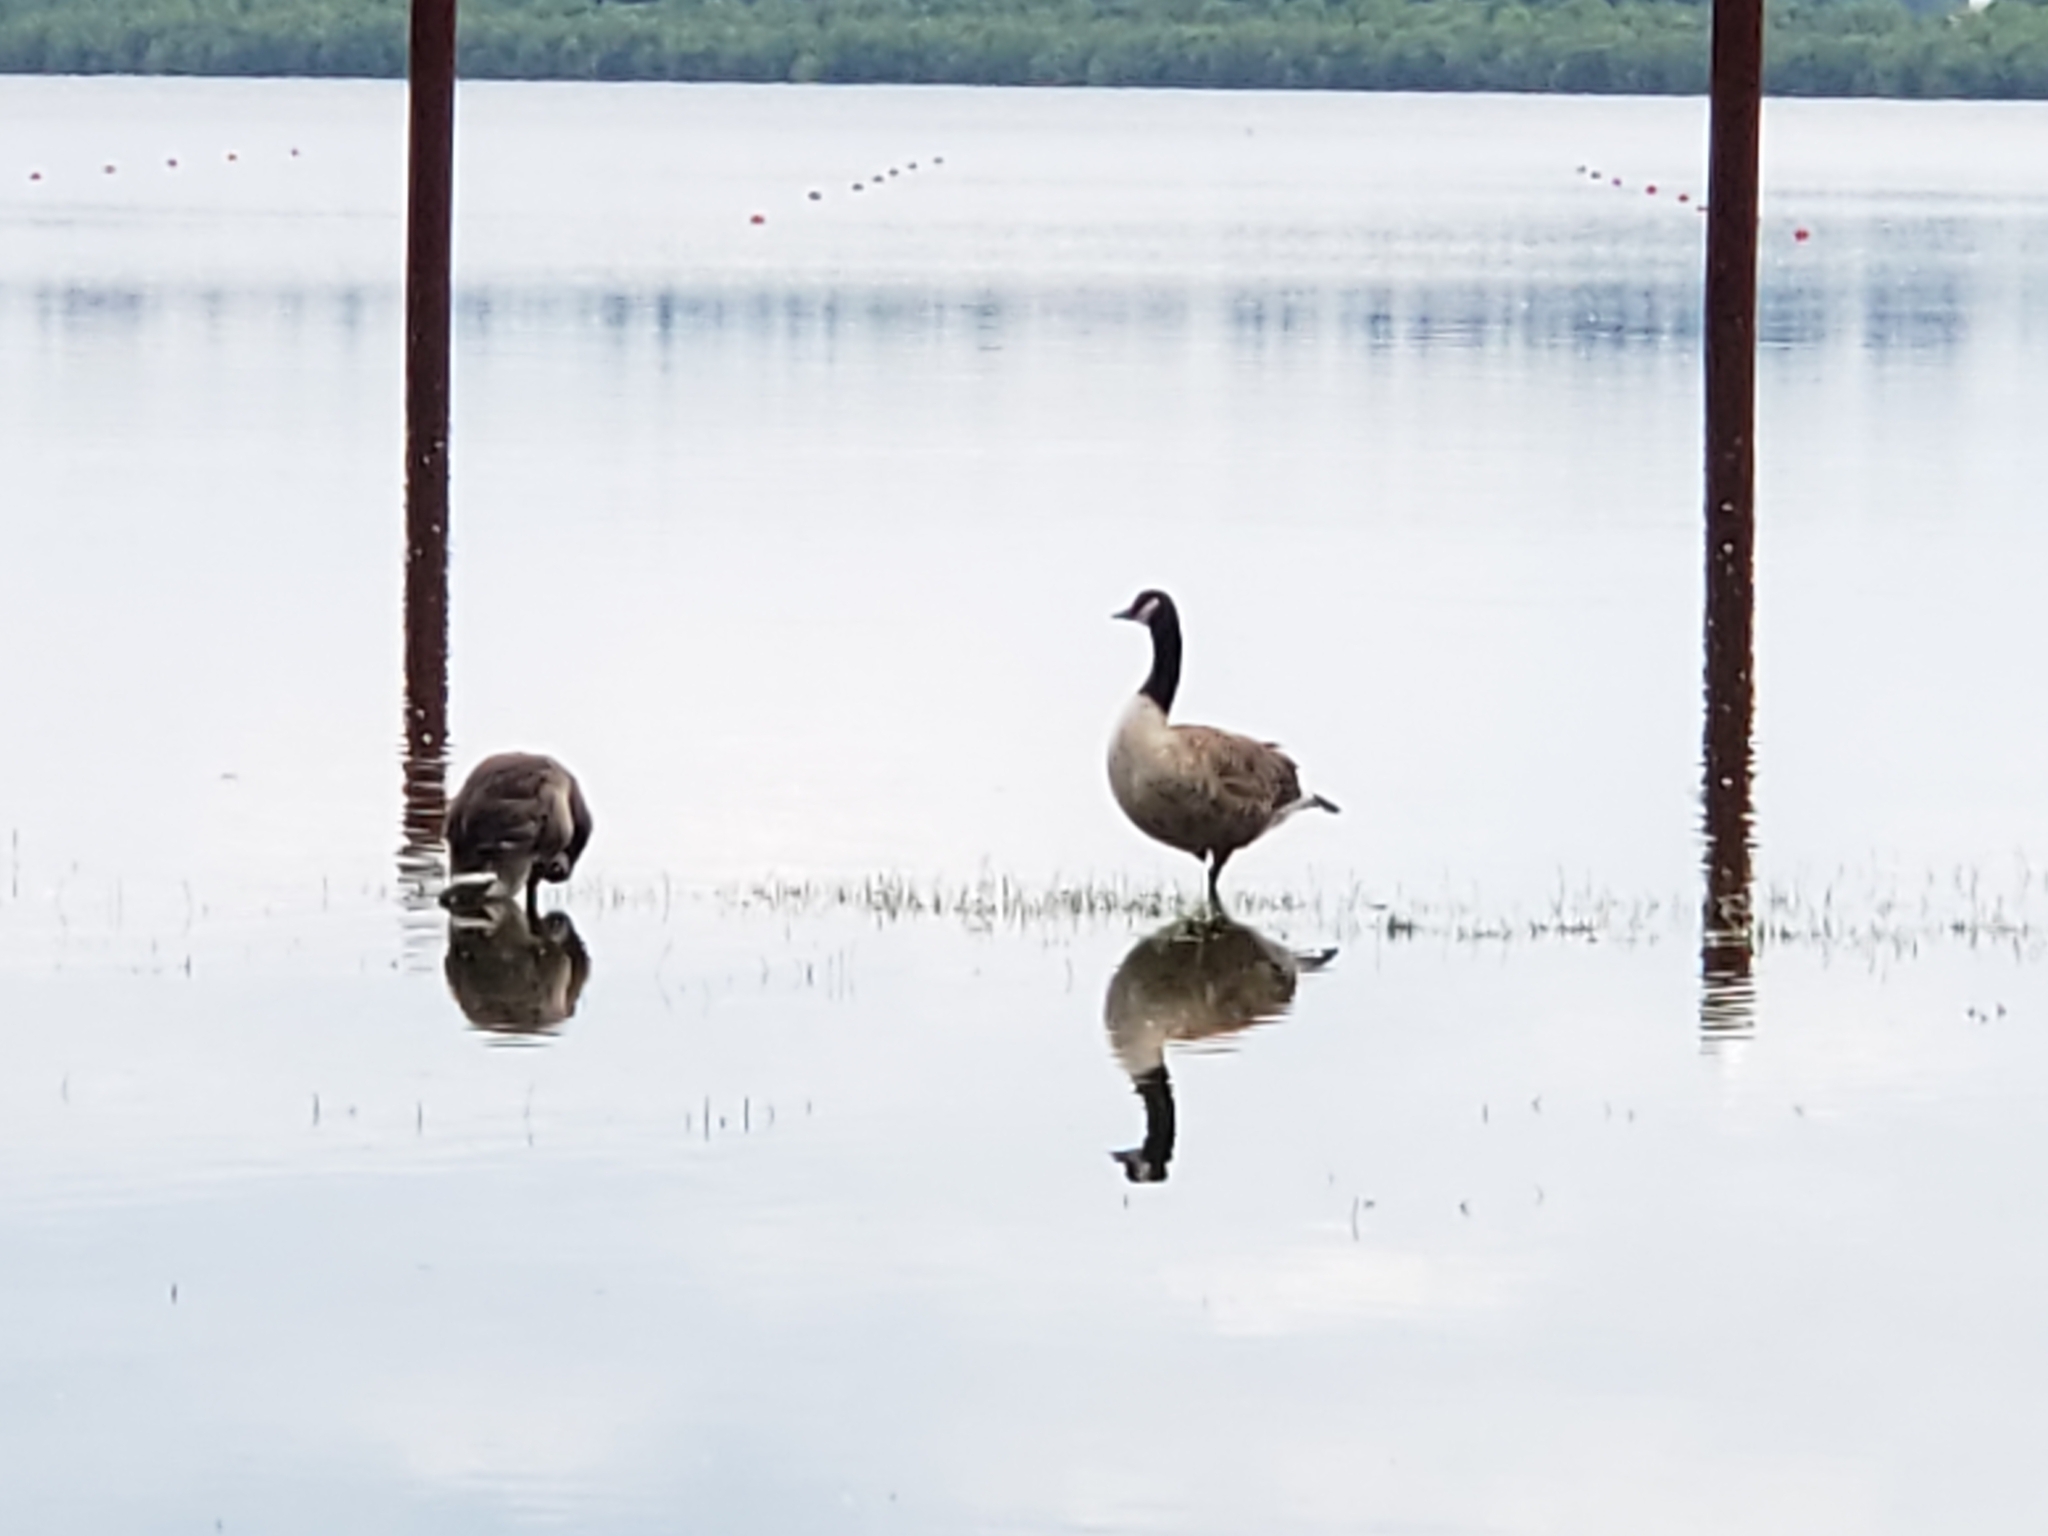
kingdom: Animalia
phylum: Chordata
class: Aves
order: Anseriformes
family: Anatidae
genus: Branta
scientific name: Branta canadensis
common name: Canada goose
